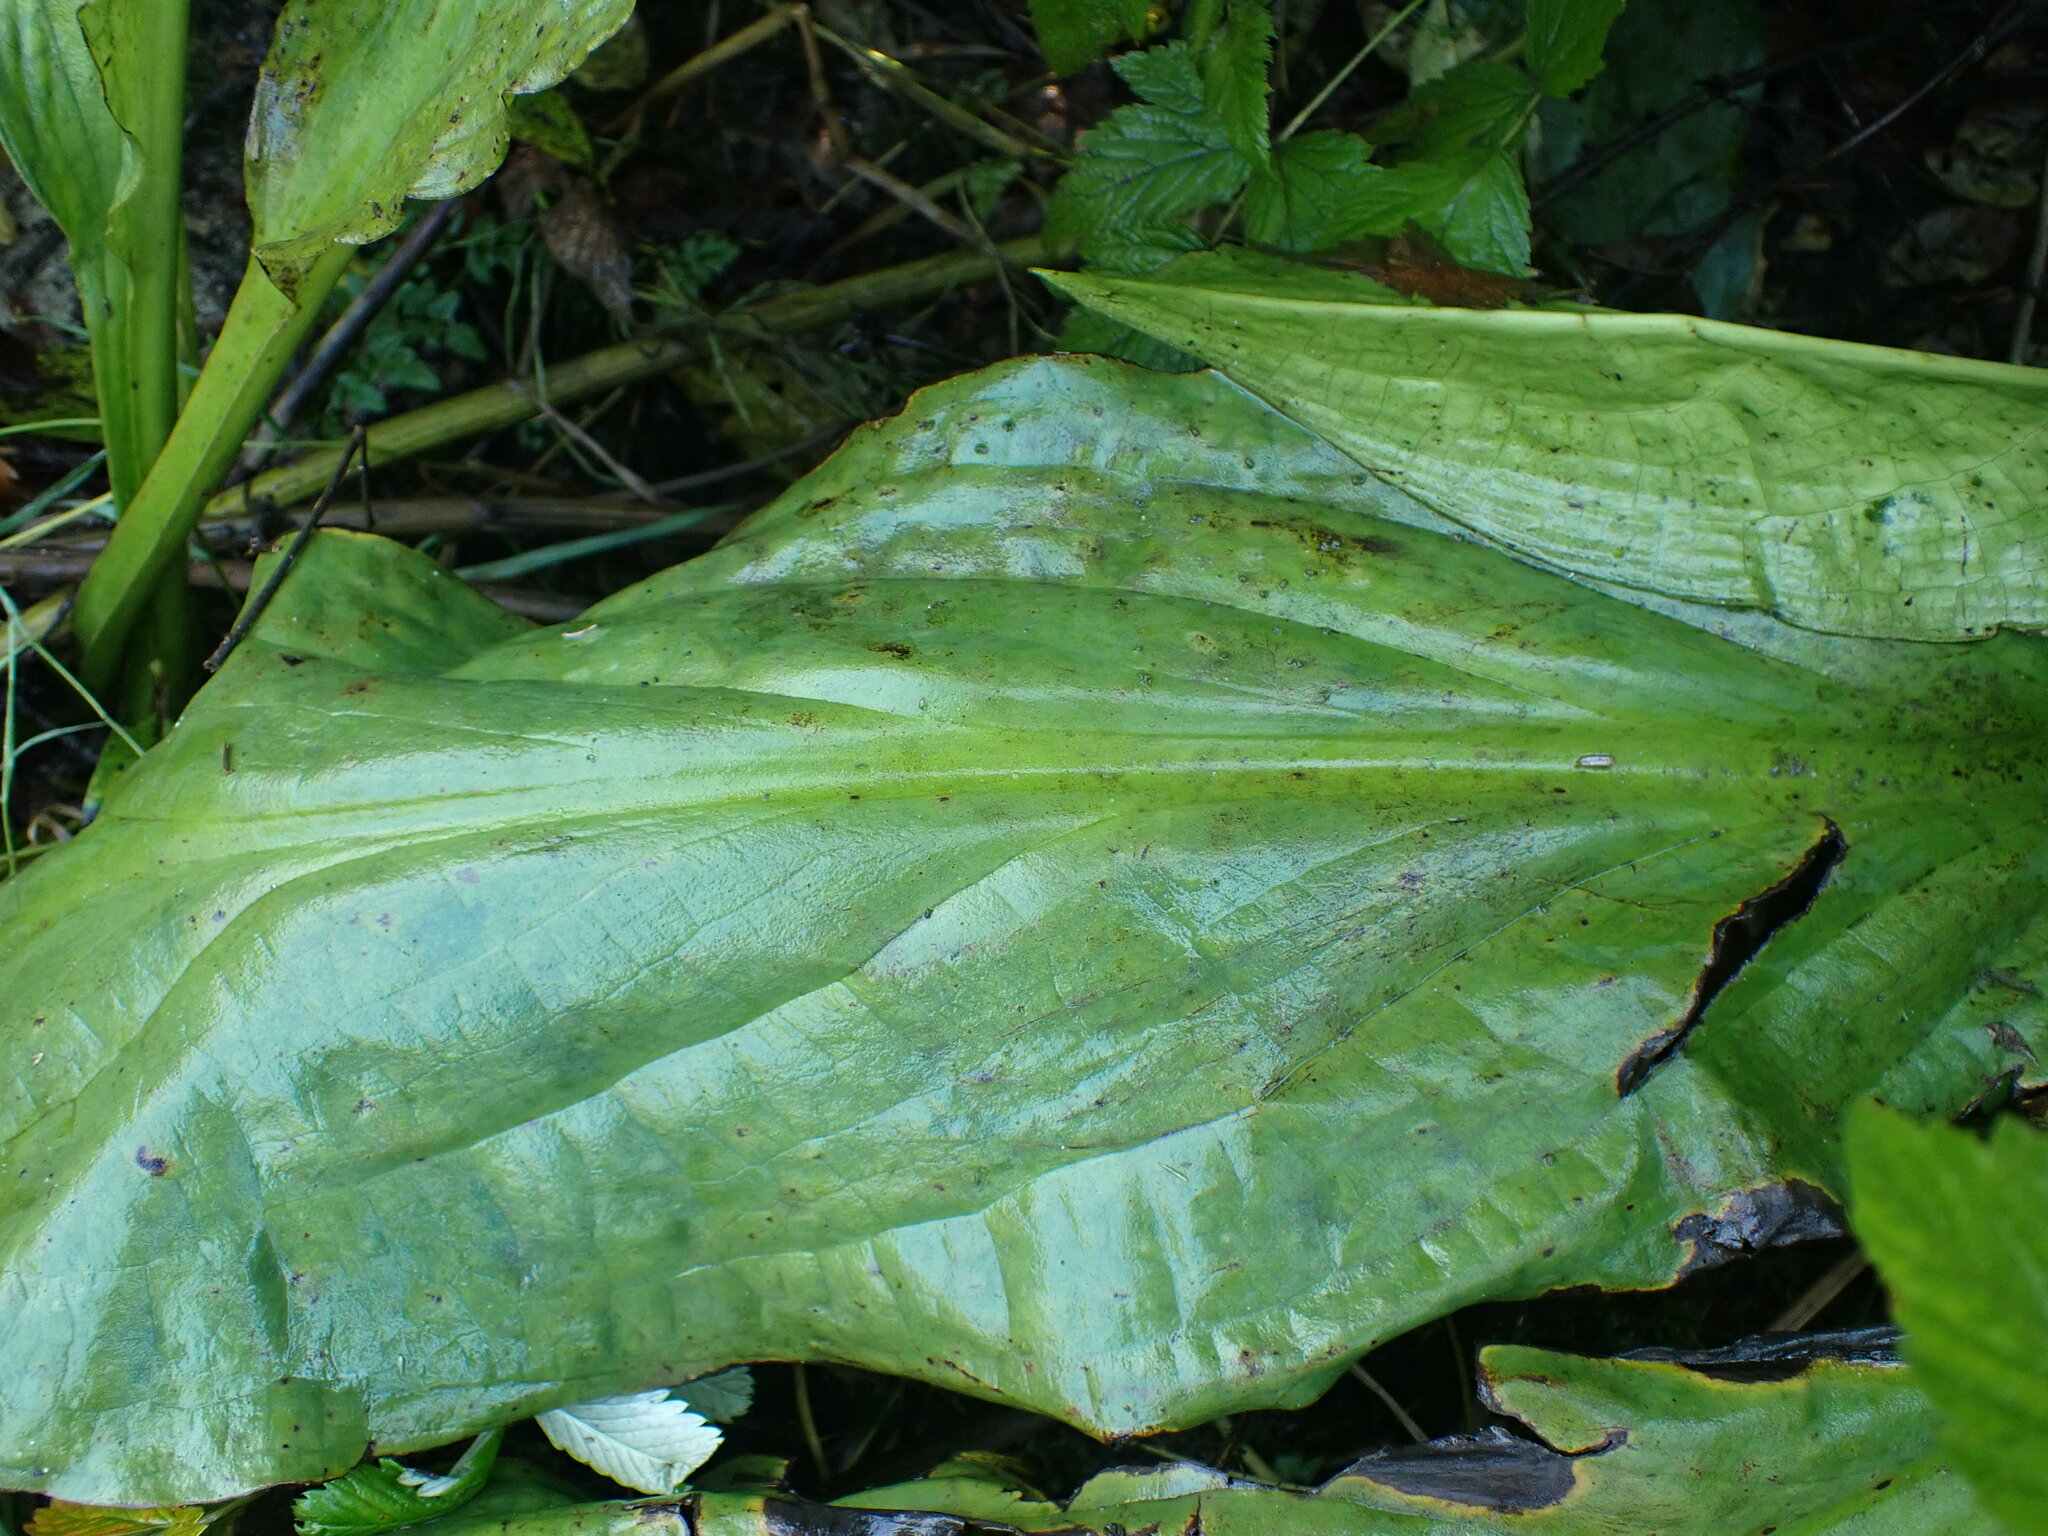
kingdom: Plantae
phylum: Tracheophyta
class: Liliopsida
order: Alismatales
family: Araceae
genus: Lysichiton
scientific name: Lysichiton americanus
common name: American skunk cabbage
